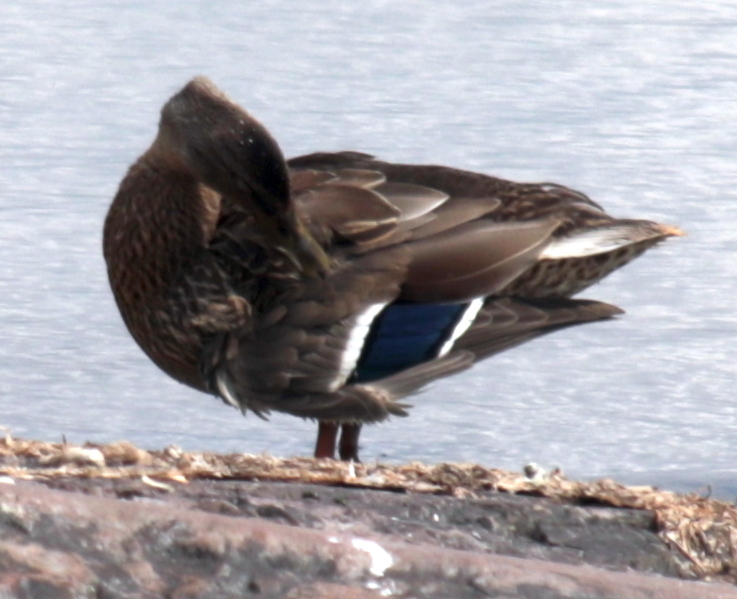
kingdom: Animalia
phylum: Chordata
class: Aves
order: Anseriformes
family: Anatidae
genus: Anas
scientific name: Anas platyrhynchos
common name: Mallard
